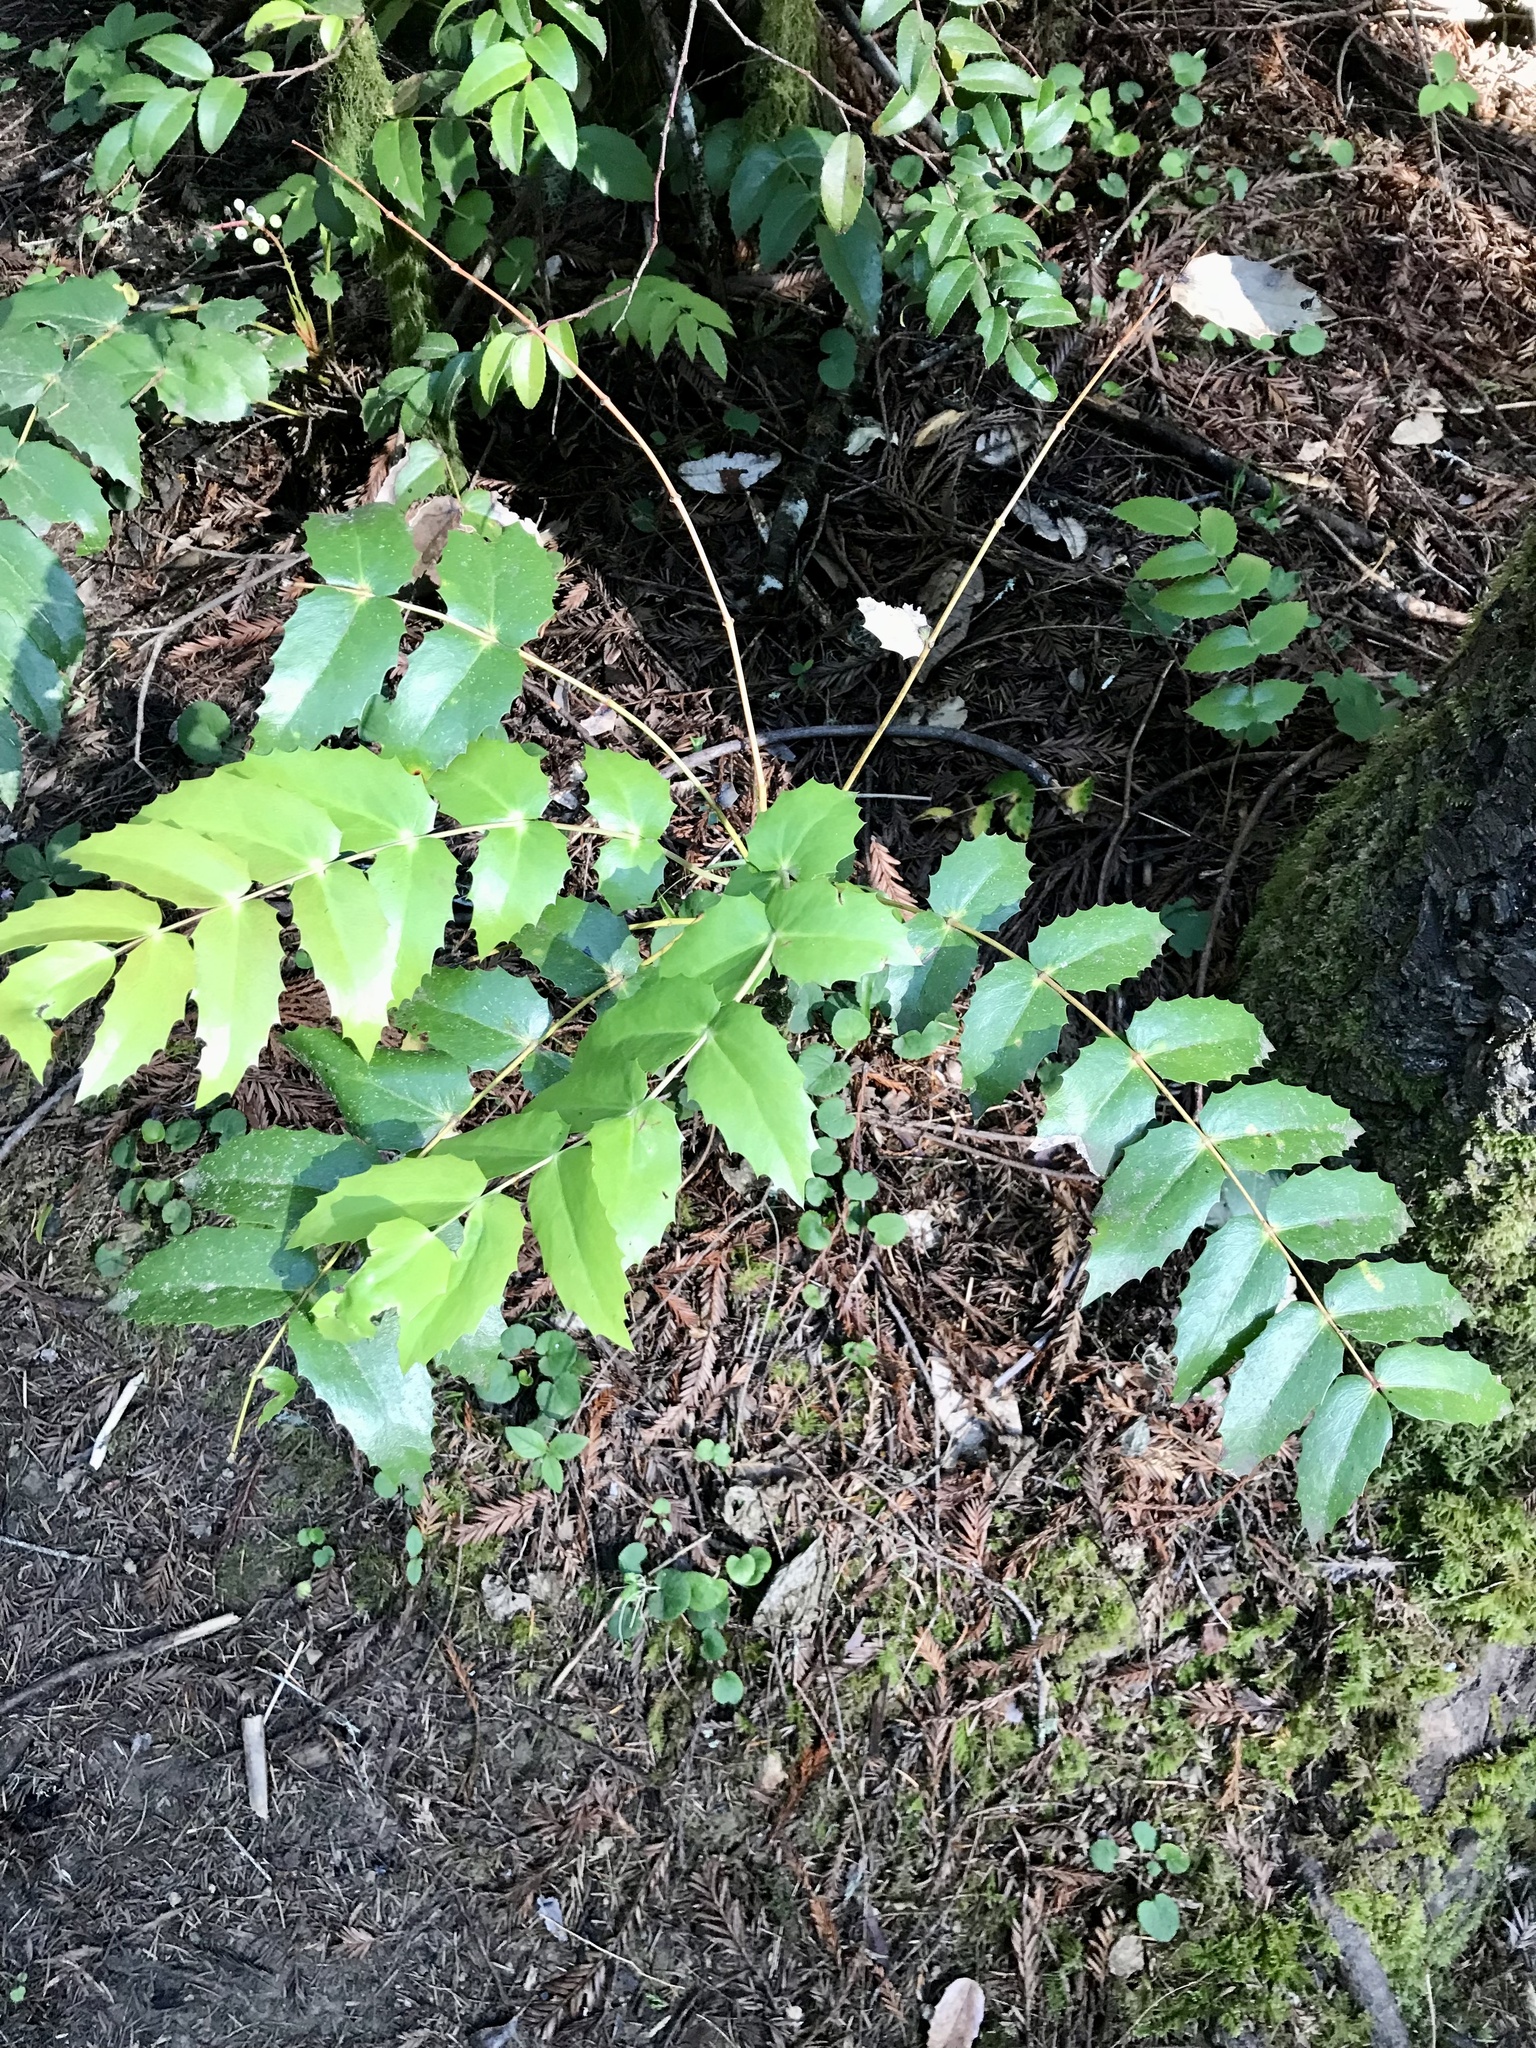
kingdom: Plantae
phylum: Tracheophyta
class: Magnoliopsida
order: Ranunculales
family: Berberidaceae
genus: Mahonia
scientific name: Mahonia nervosa
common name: Cascade oregon-grape
